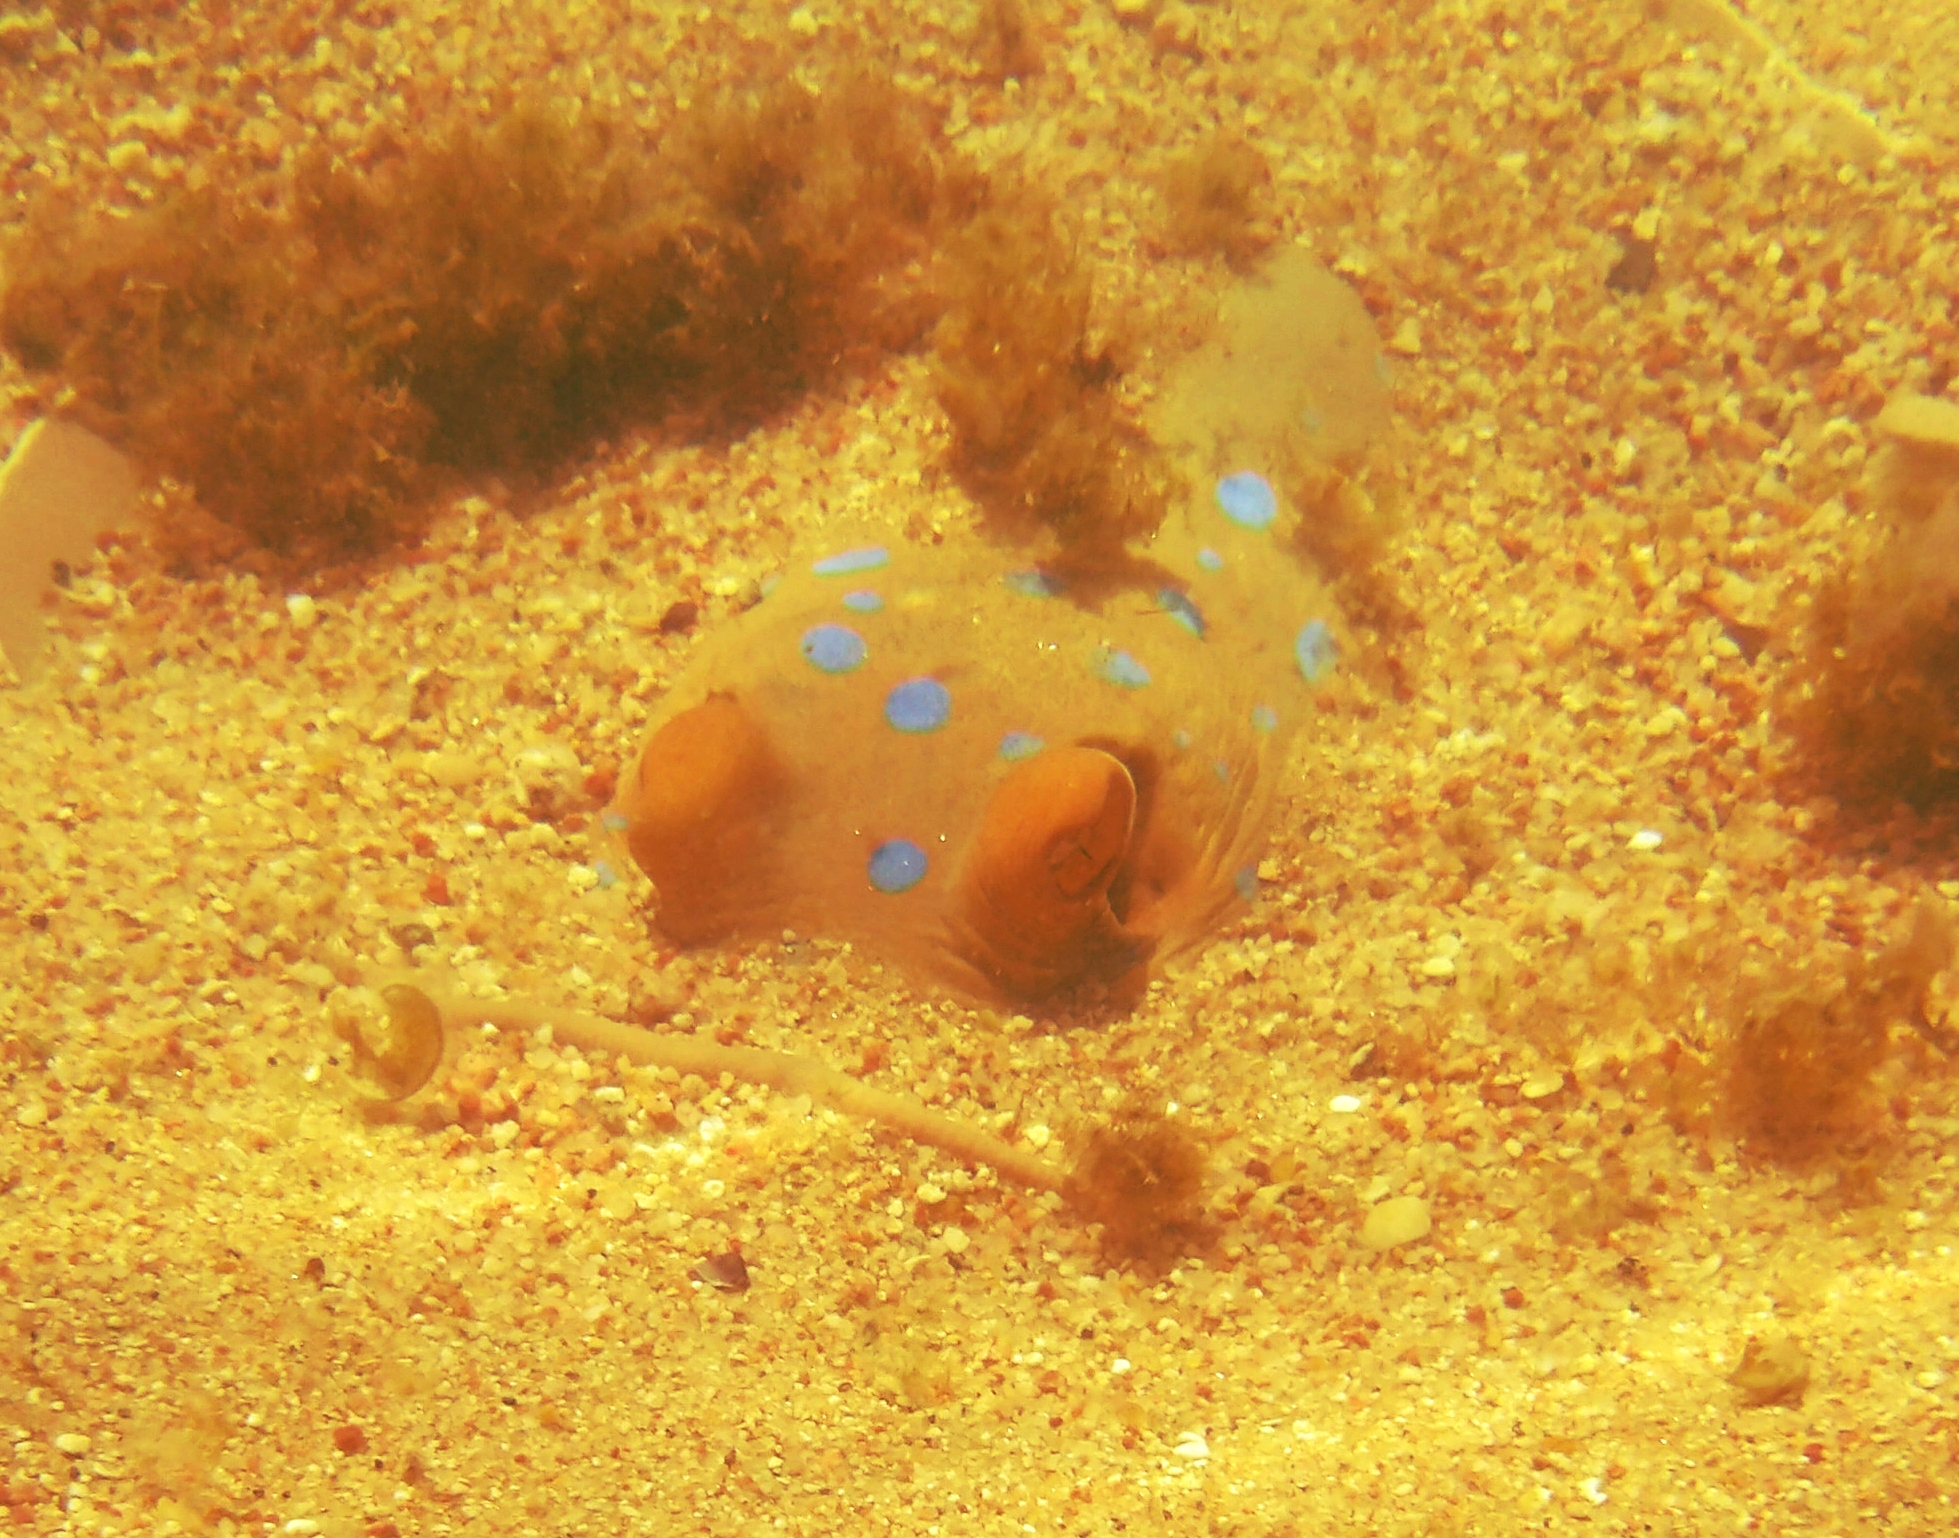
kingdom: Animalia
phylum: Chordata
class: Elasmobranchii
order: Myliobatiformes
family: Dasyatidae
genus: Taeniura
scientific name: Taeniura lymma
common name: Bluespotted ribbontail ray
